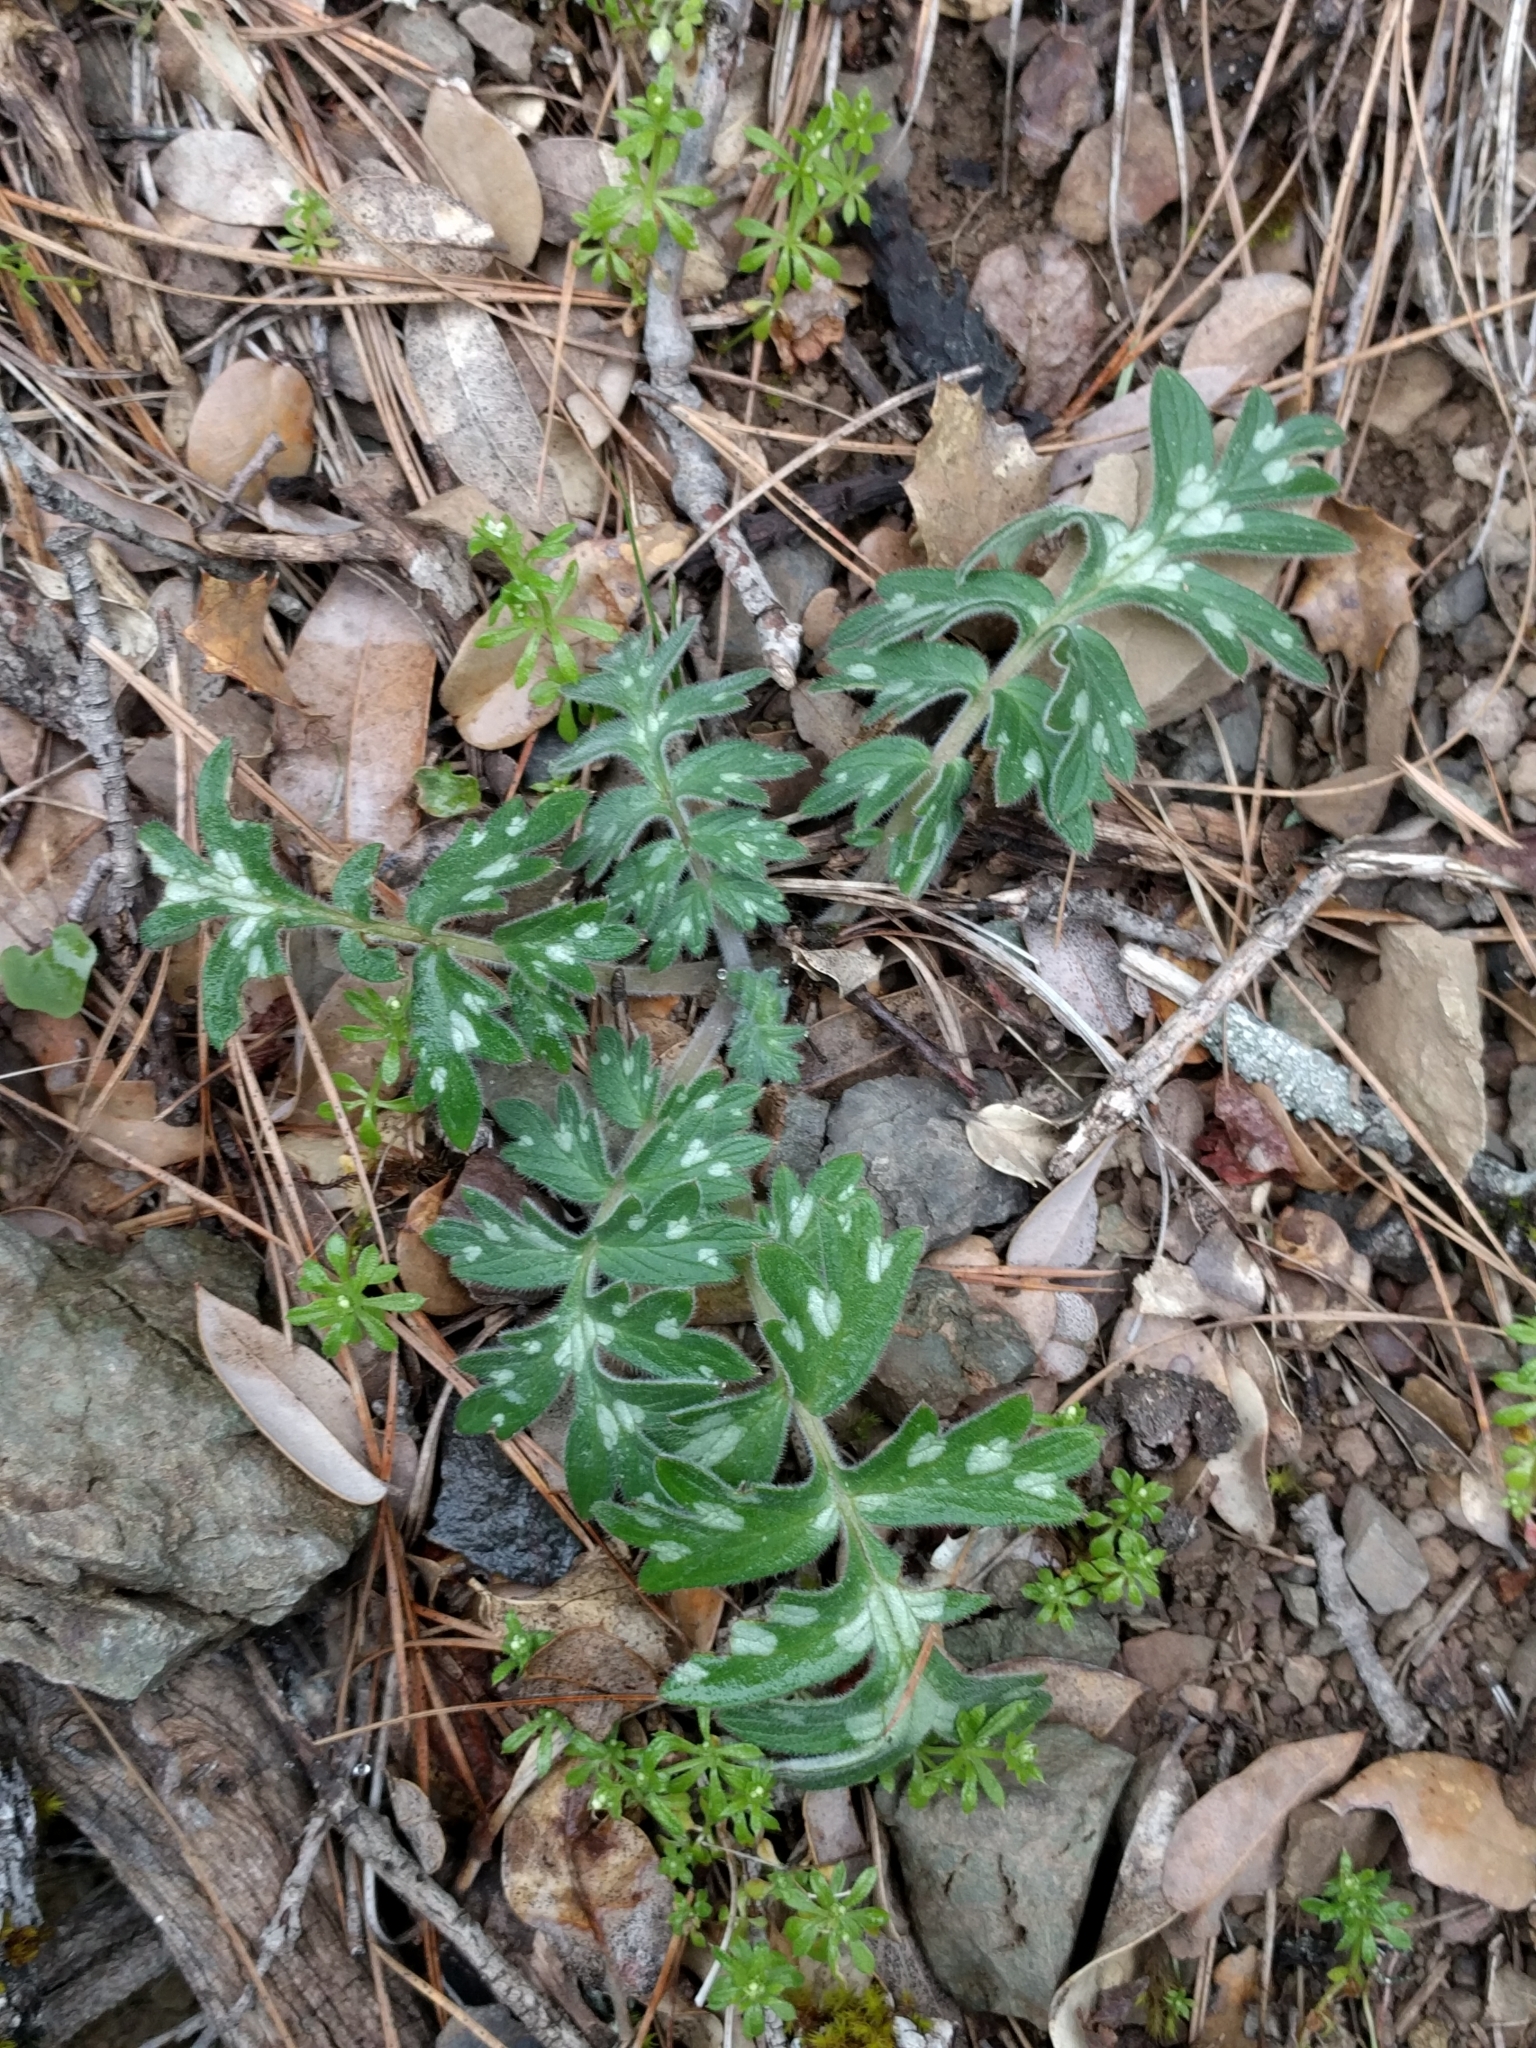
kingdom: Plantae
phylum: Tracheophyta
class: Magnoliopsida
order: Boraginales
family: Hydrophyllaceae
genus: Hydrophyllum
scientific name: Hydrophyllum occidentale
